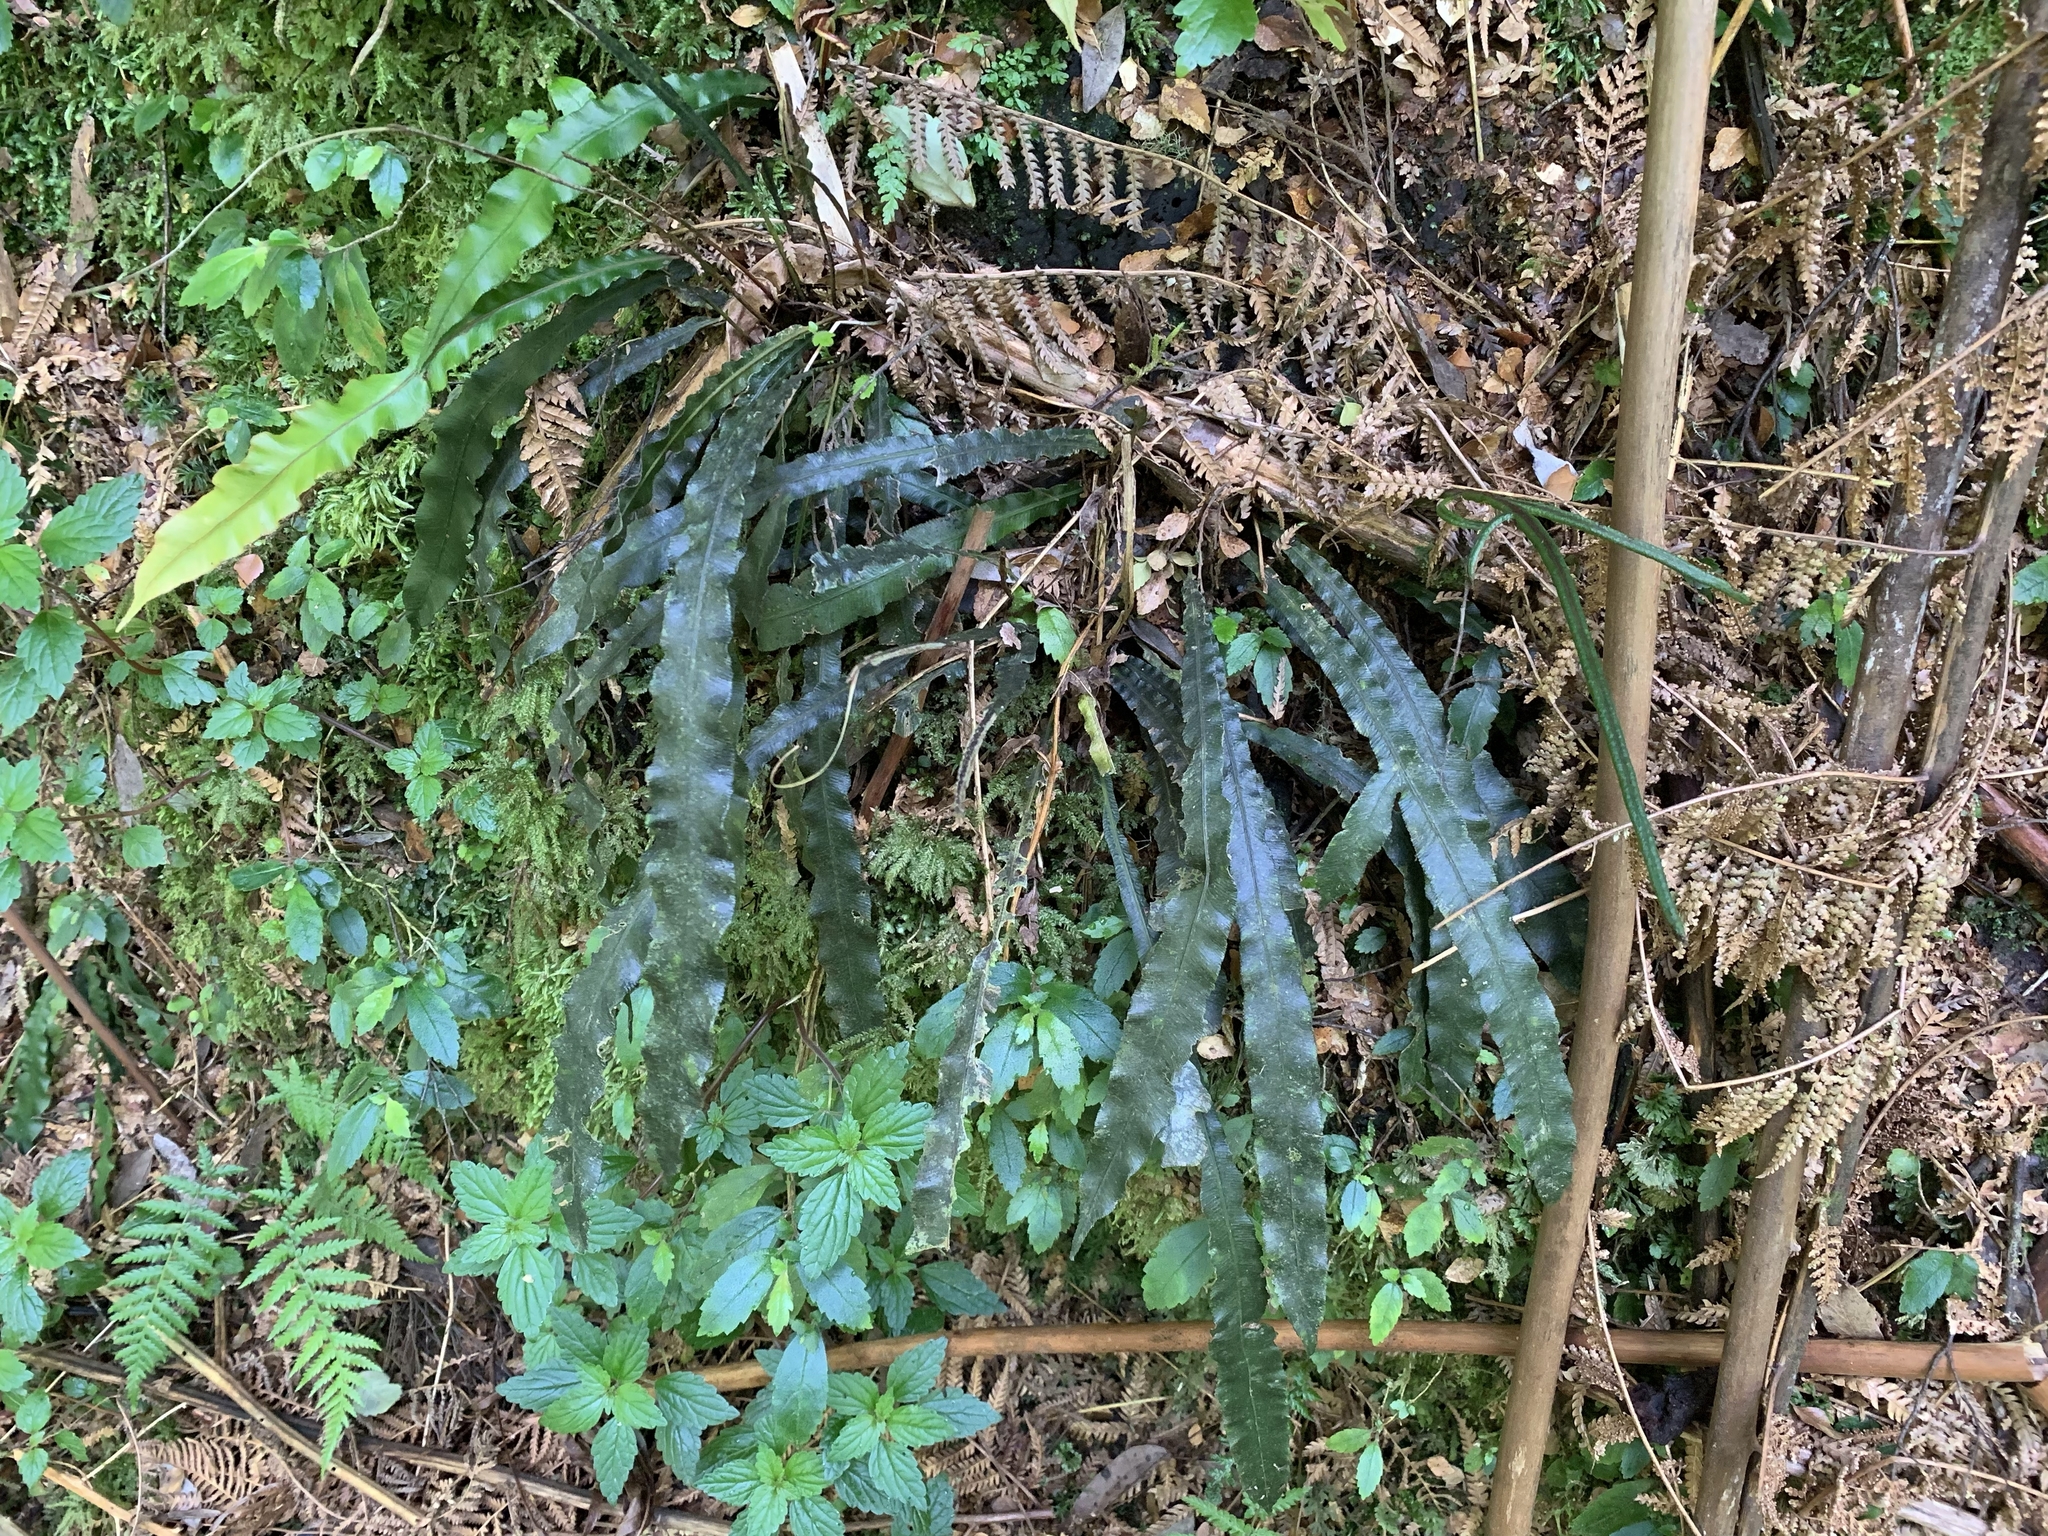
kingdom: Plantae
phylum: Tracheophyta
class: Polypodiopsida
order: Polypodiales
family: Blechnaceae
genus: Austroblechnum
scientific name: Austroblechnum patersonii
